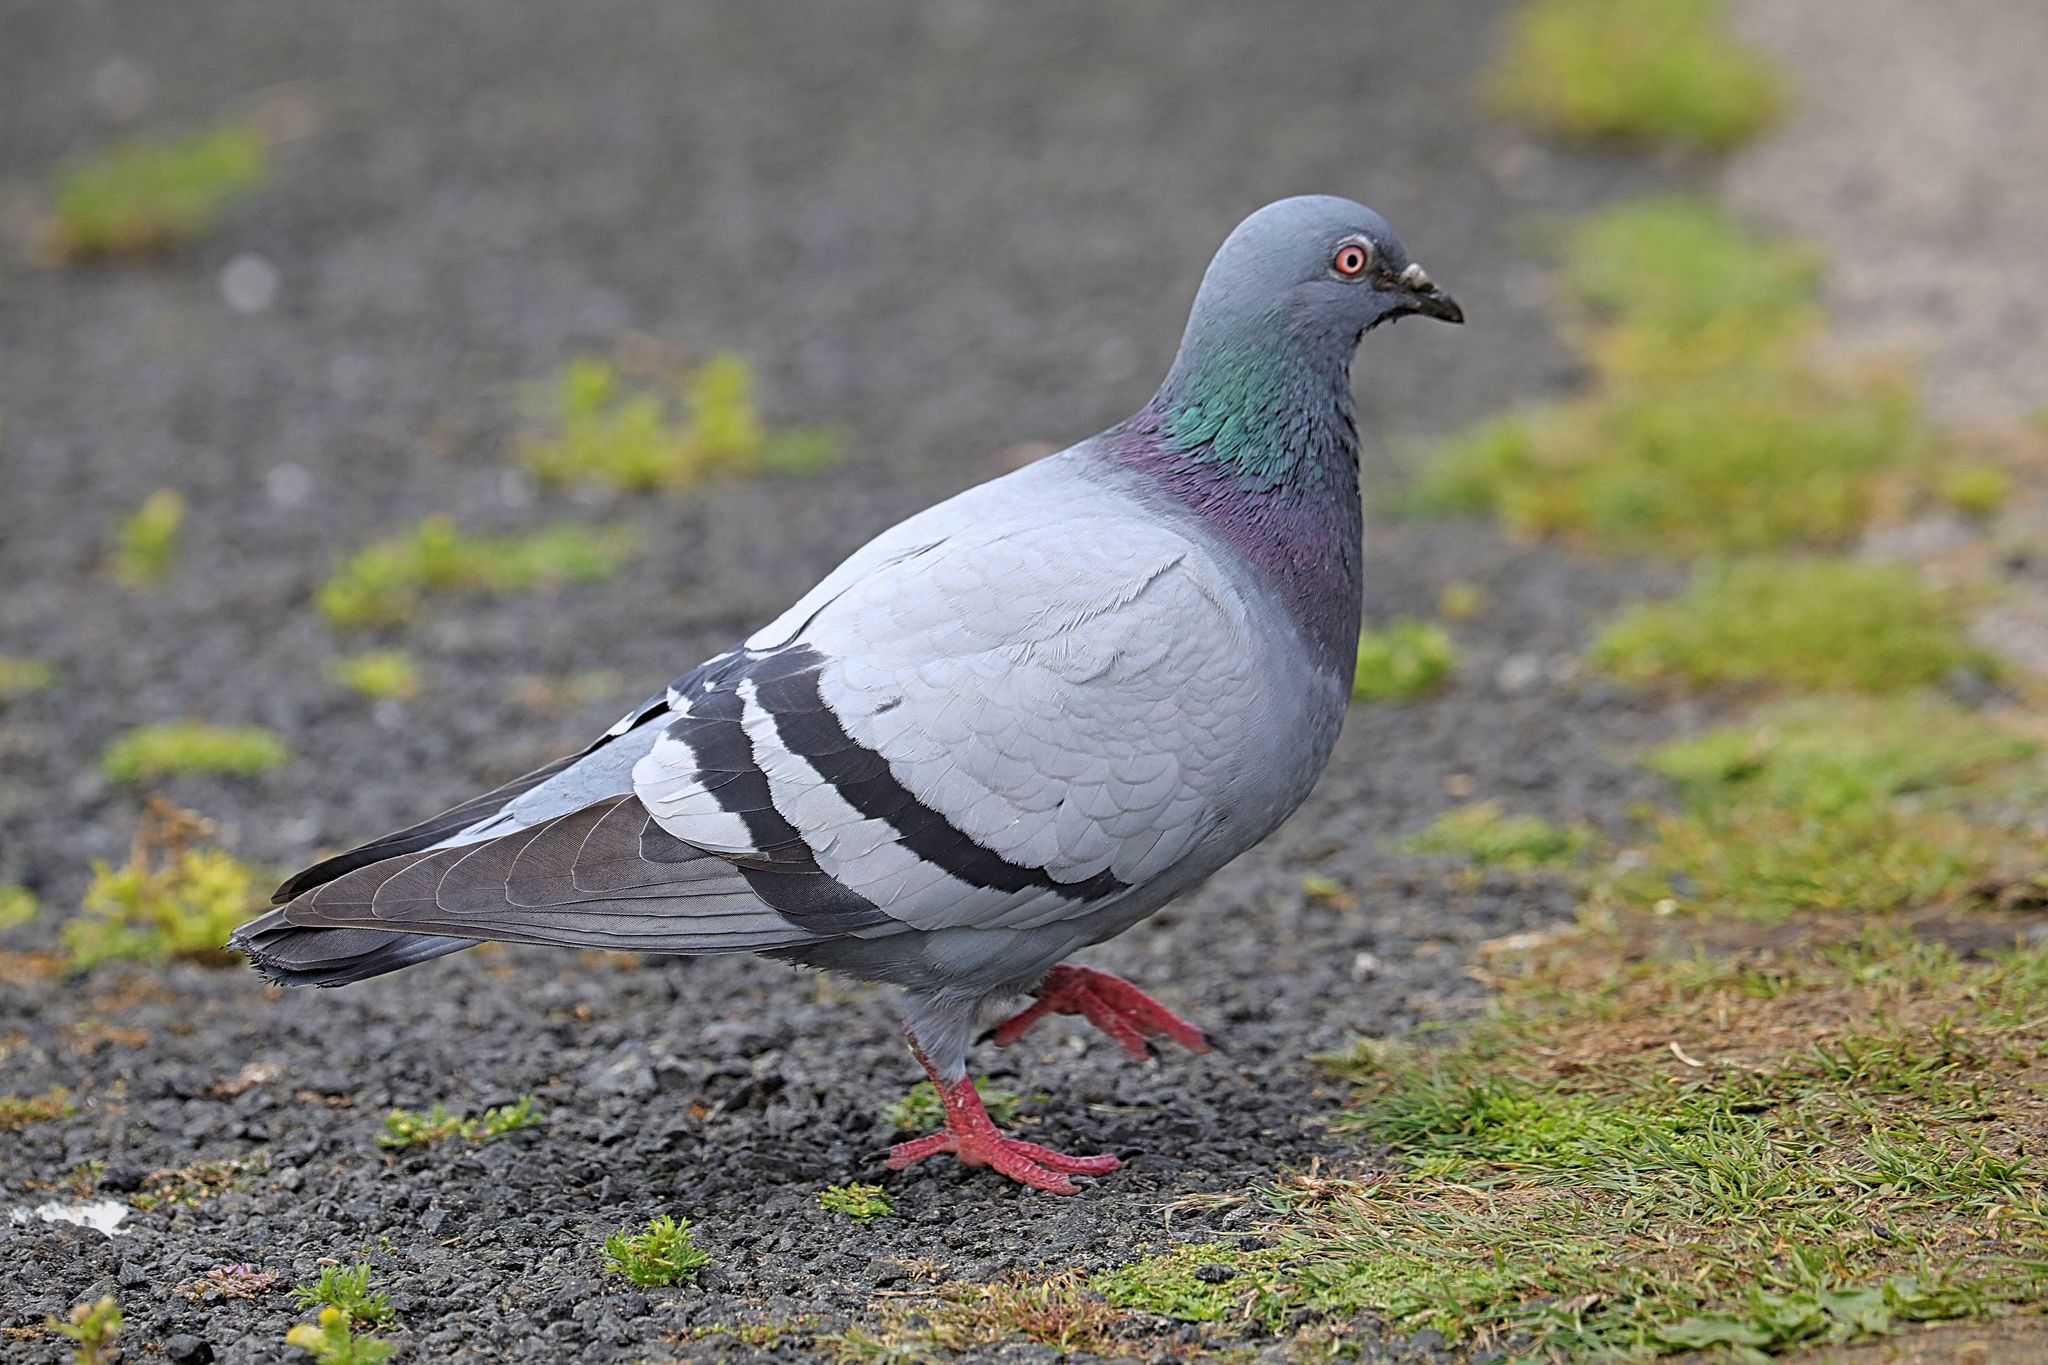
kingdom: Animalia
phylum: Chordata
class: Aves
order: Columbiformes
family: Columbidae
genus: Columba
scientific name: Columba livia
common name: Rock pigeon
